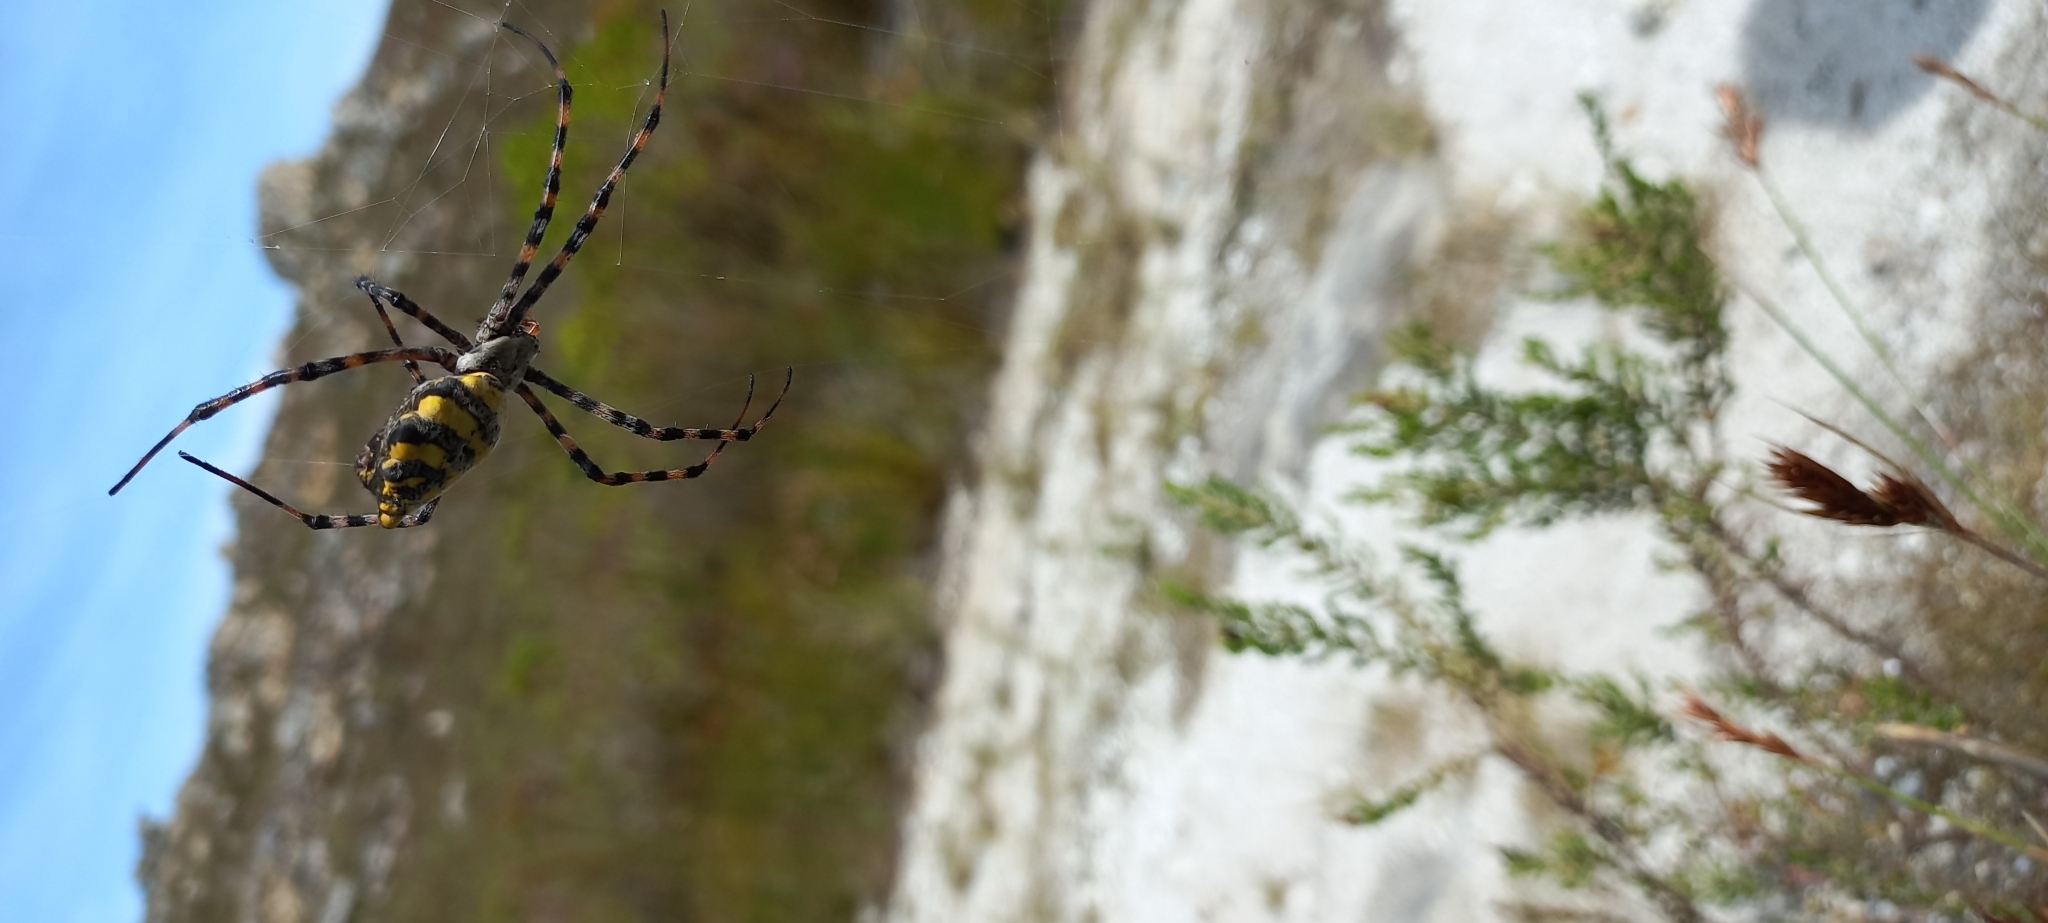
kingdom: Animalia
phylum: Arthropoda
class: Arachnida
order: Araneae
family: Araneidae
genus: Argiope
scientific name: Argiope australis
